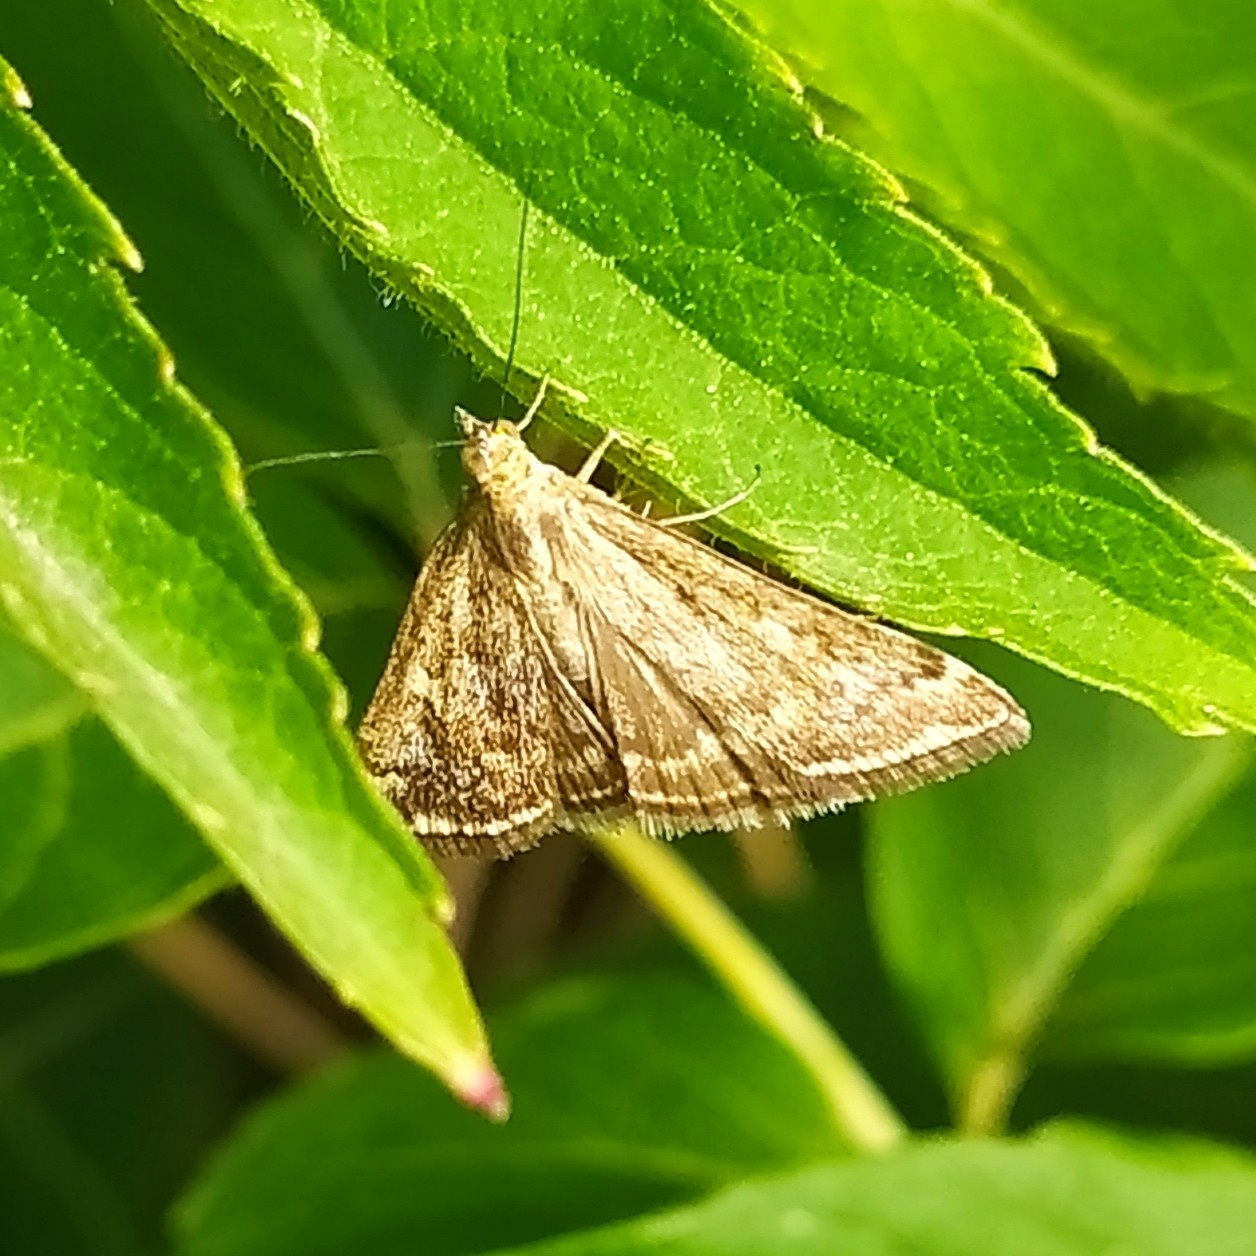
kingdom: Animalia
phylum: Arthropoda
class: Insecta
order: Lepidoptera
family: Crambidae
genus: Loxostege
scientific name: Loxostege sticticalis
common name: Crambid moth
